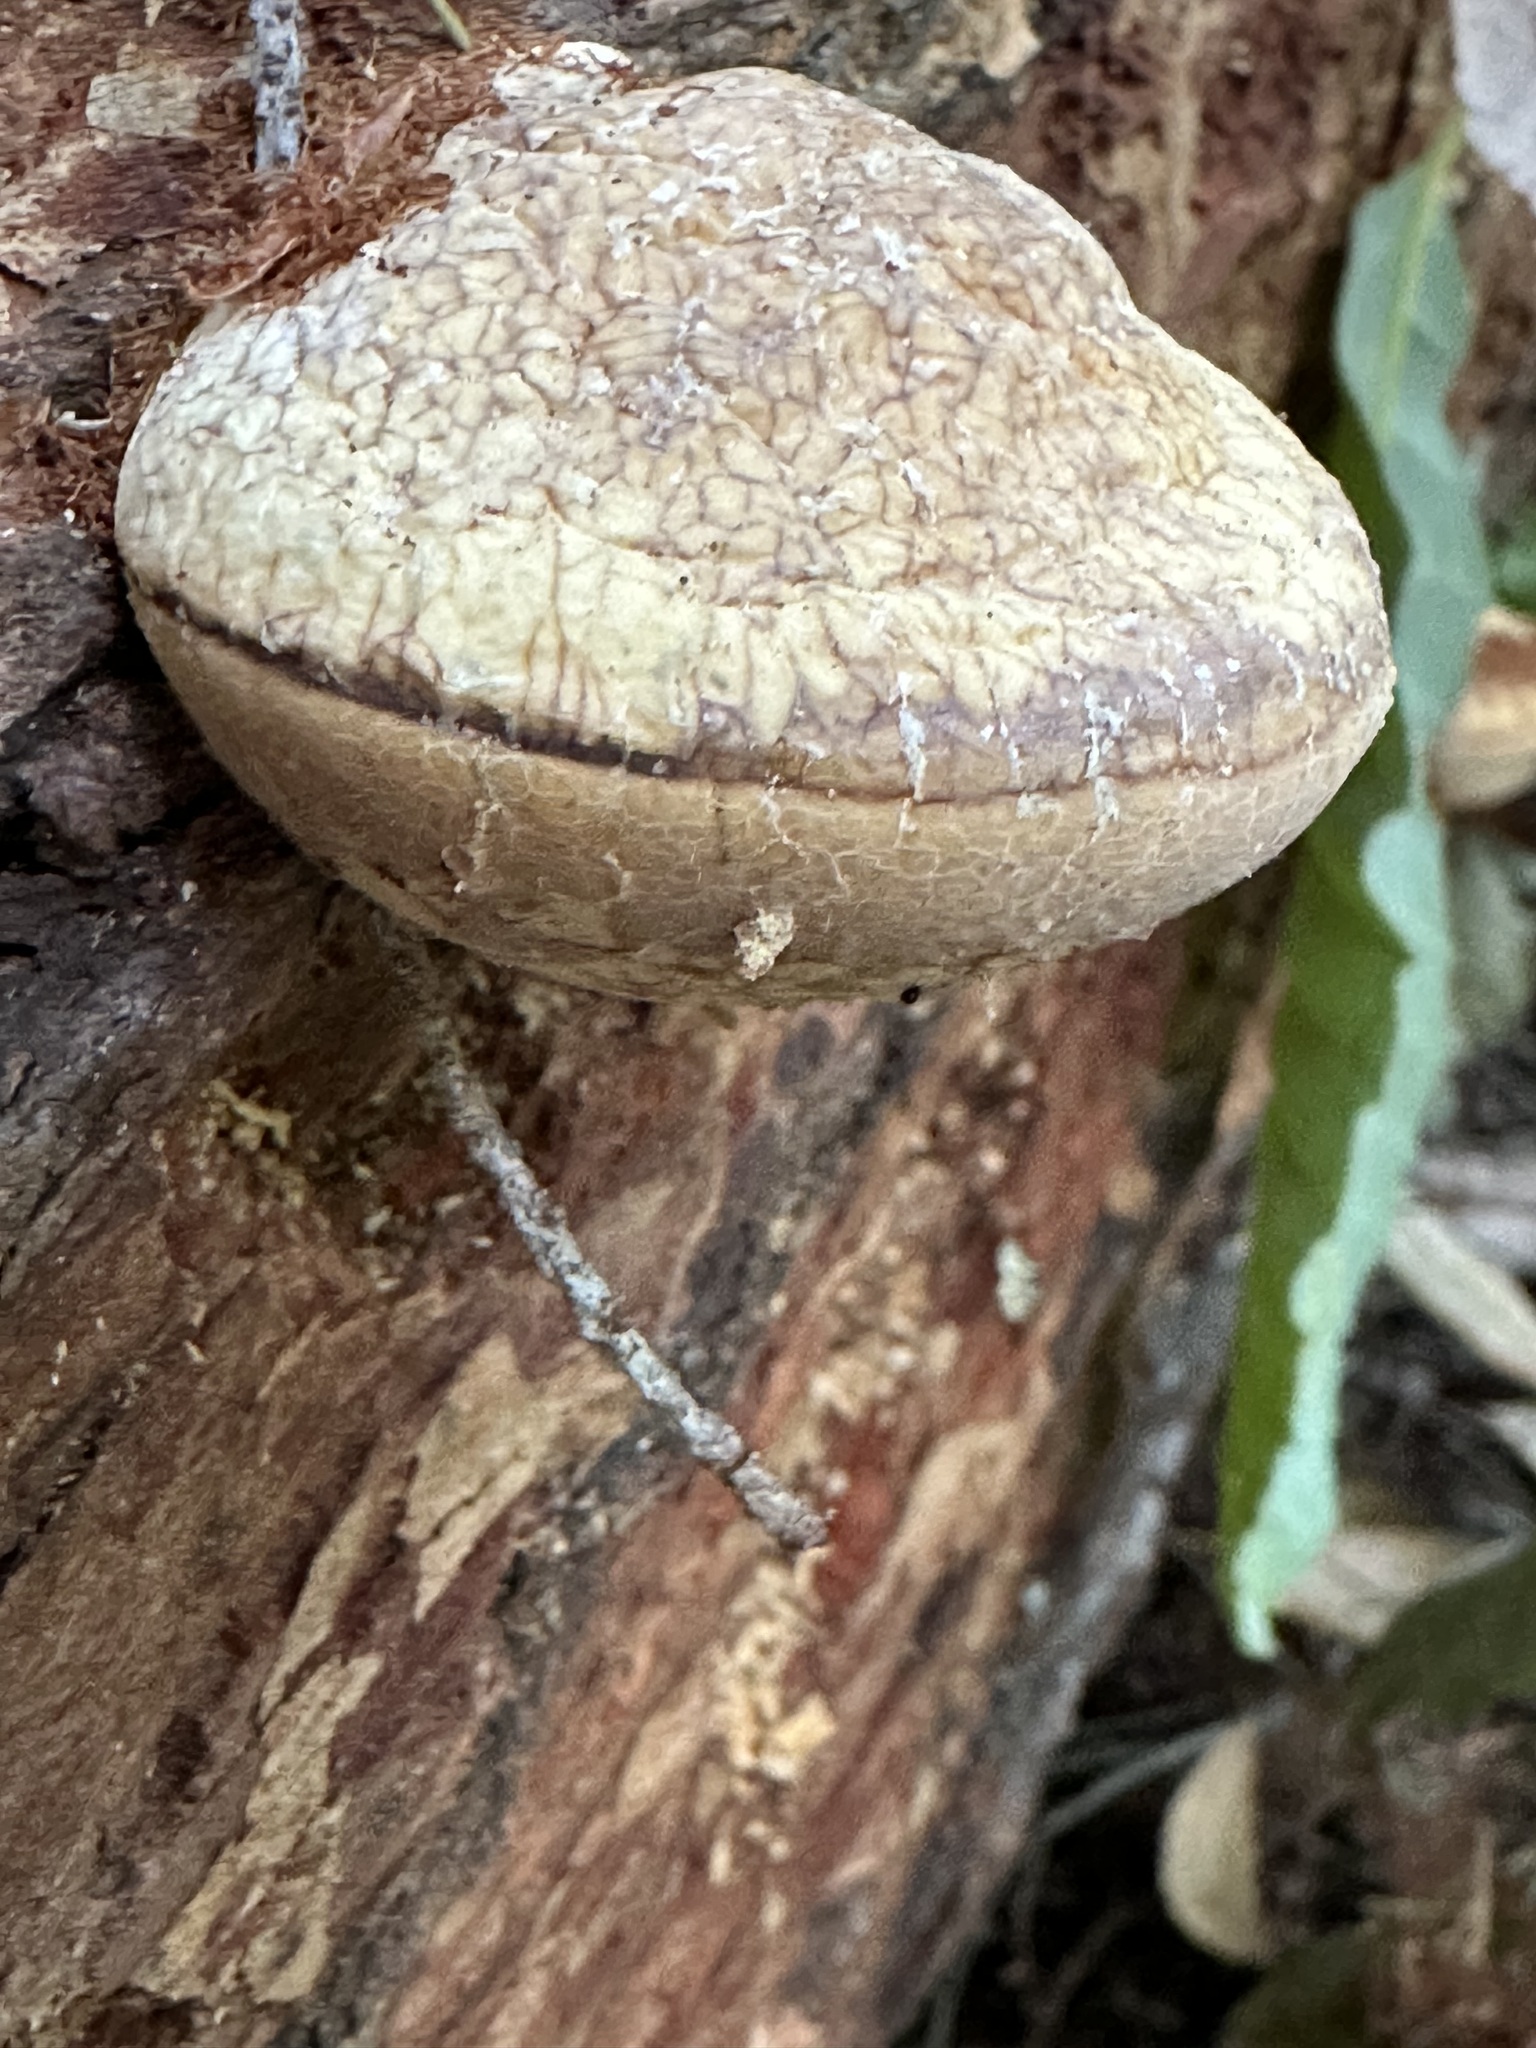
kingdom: Fungi
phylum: Basidiomycota
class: Agaricomycetes
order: Polyporales
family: Polyporaceae
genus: Cryptoporus
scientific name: Cryptoporus volvatus
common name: Veiled polypore
